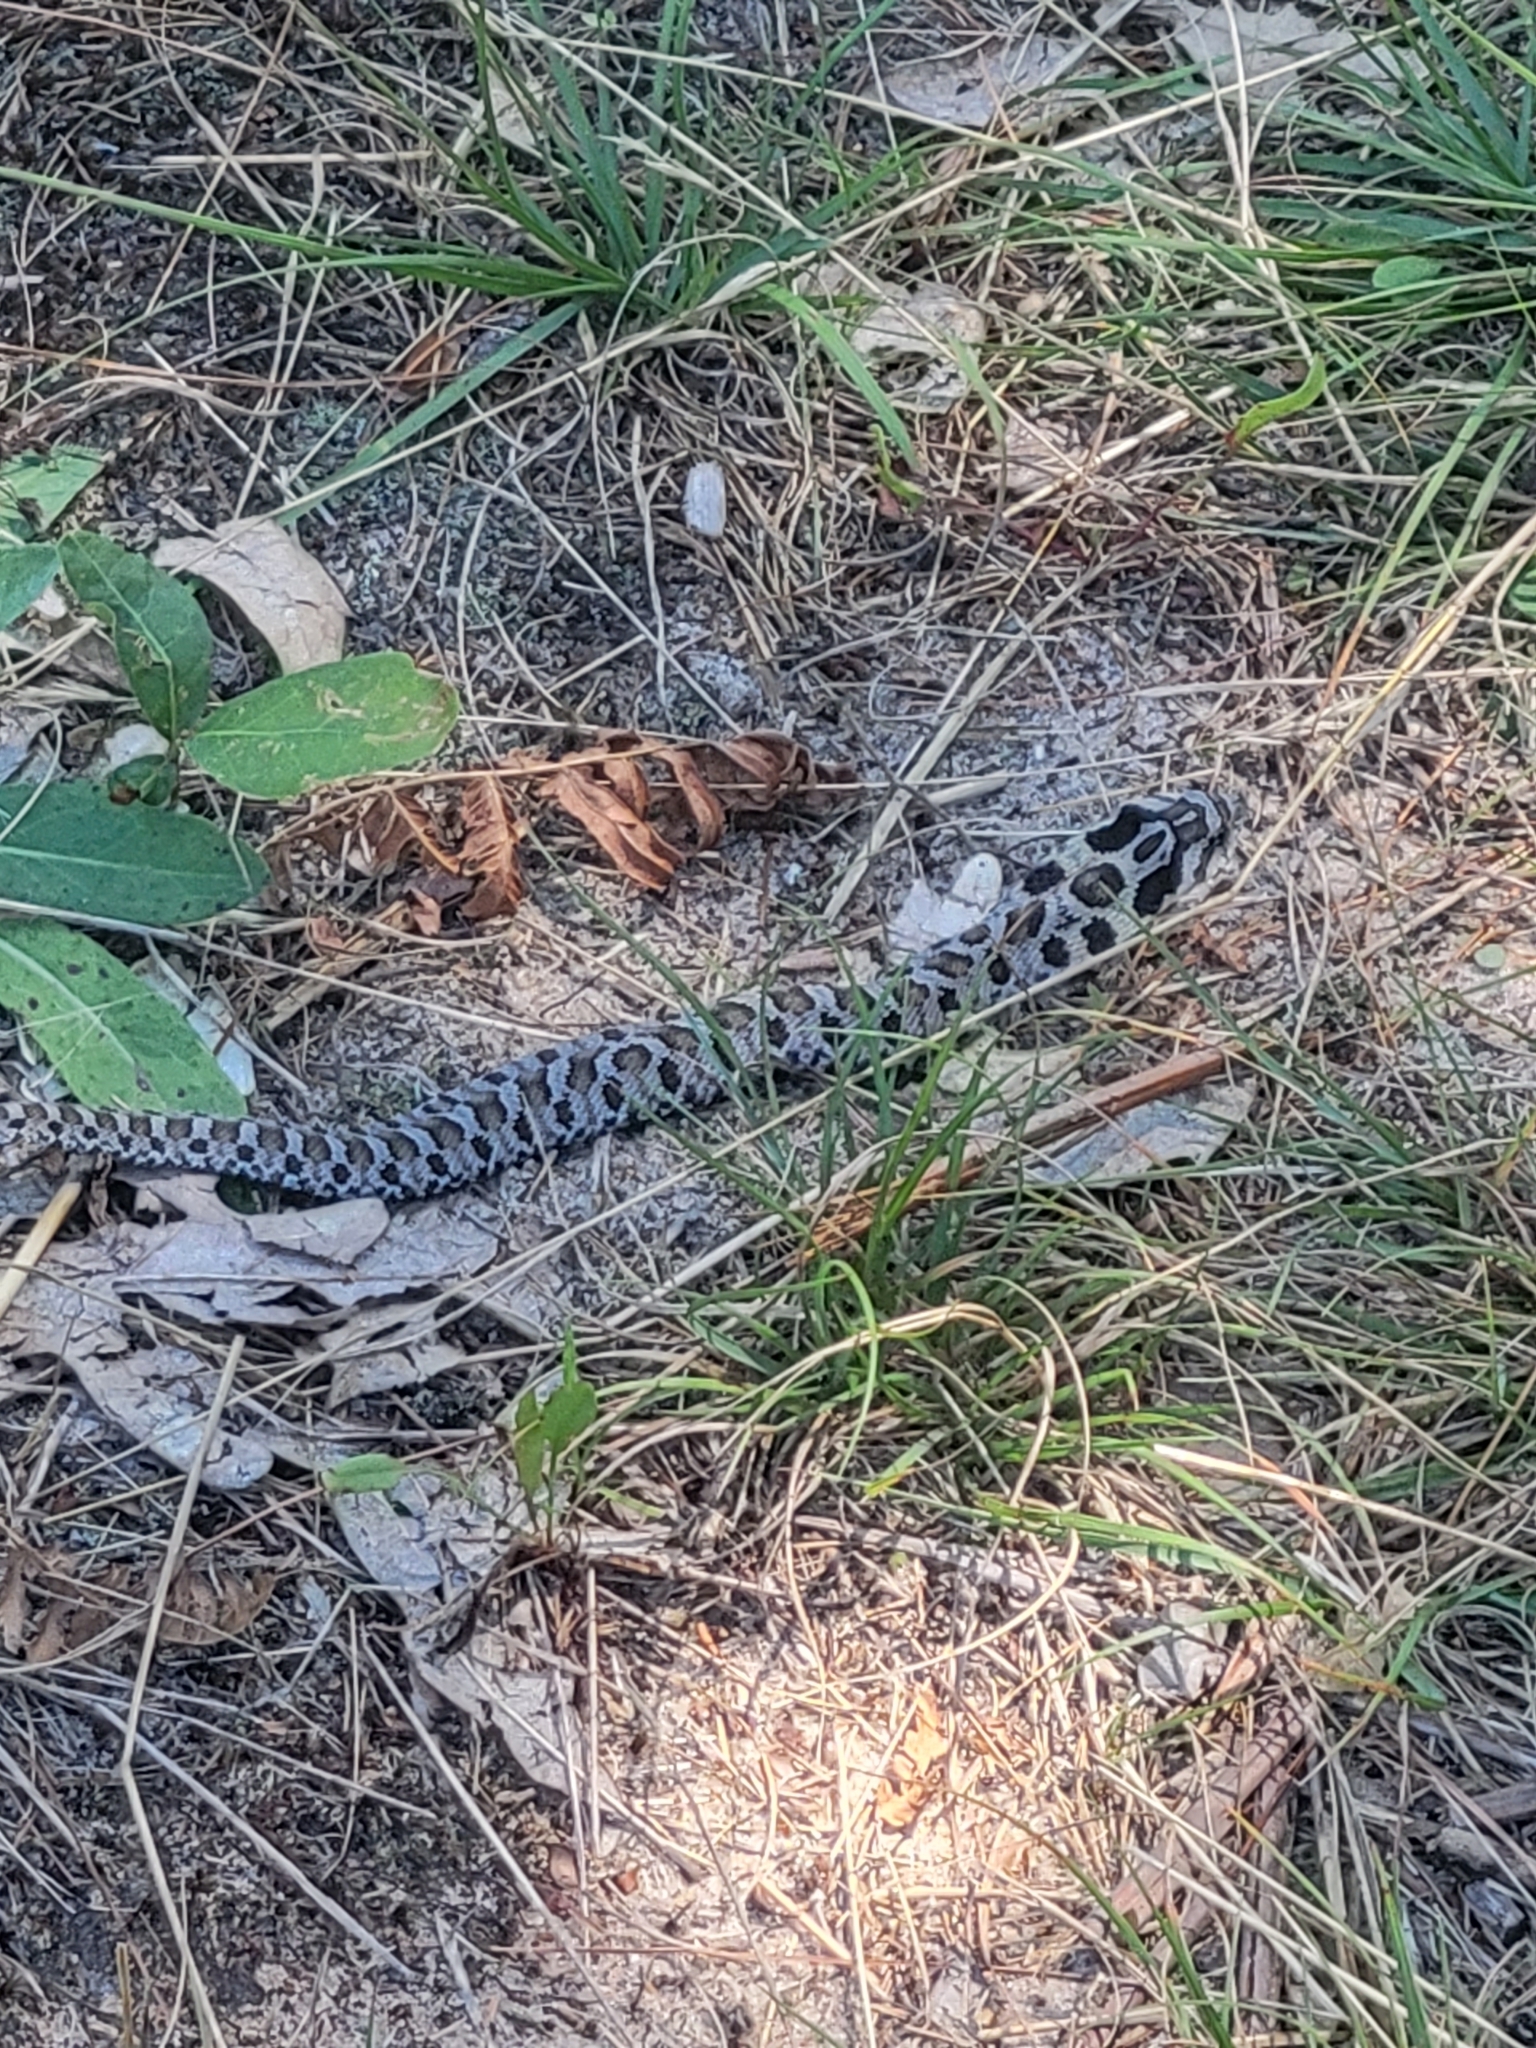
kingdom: Animalia
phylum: Chordata
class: Squamata
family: Colubridae
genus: Heterodon
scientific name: Heterodon platirhinos
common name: Eastern hognose snake
